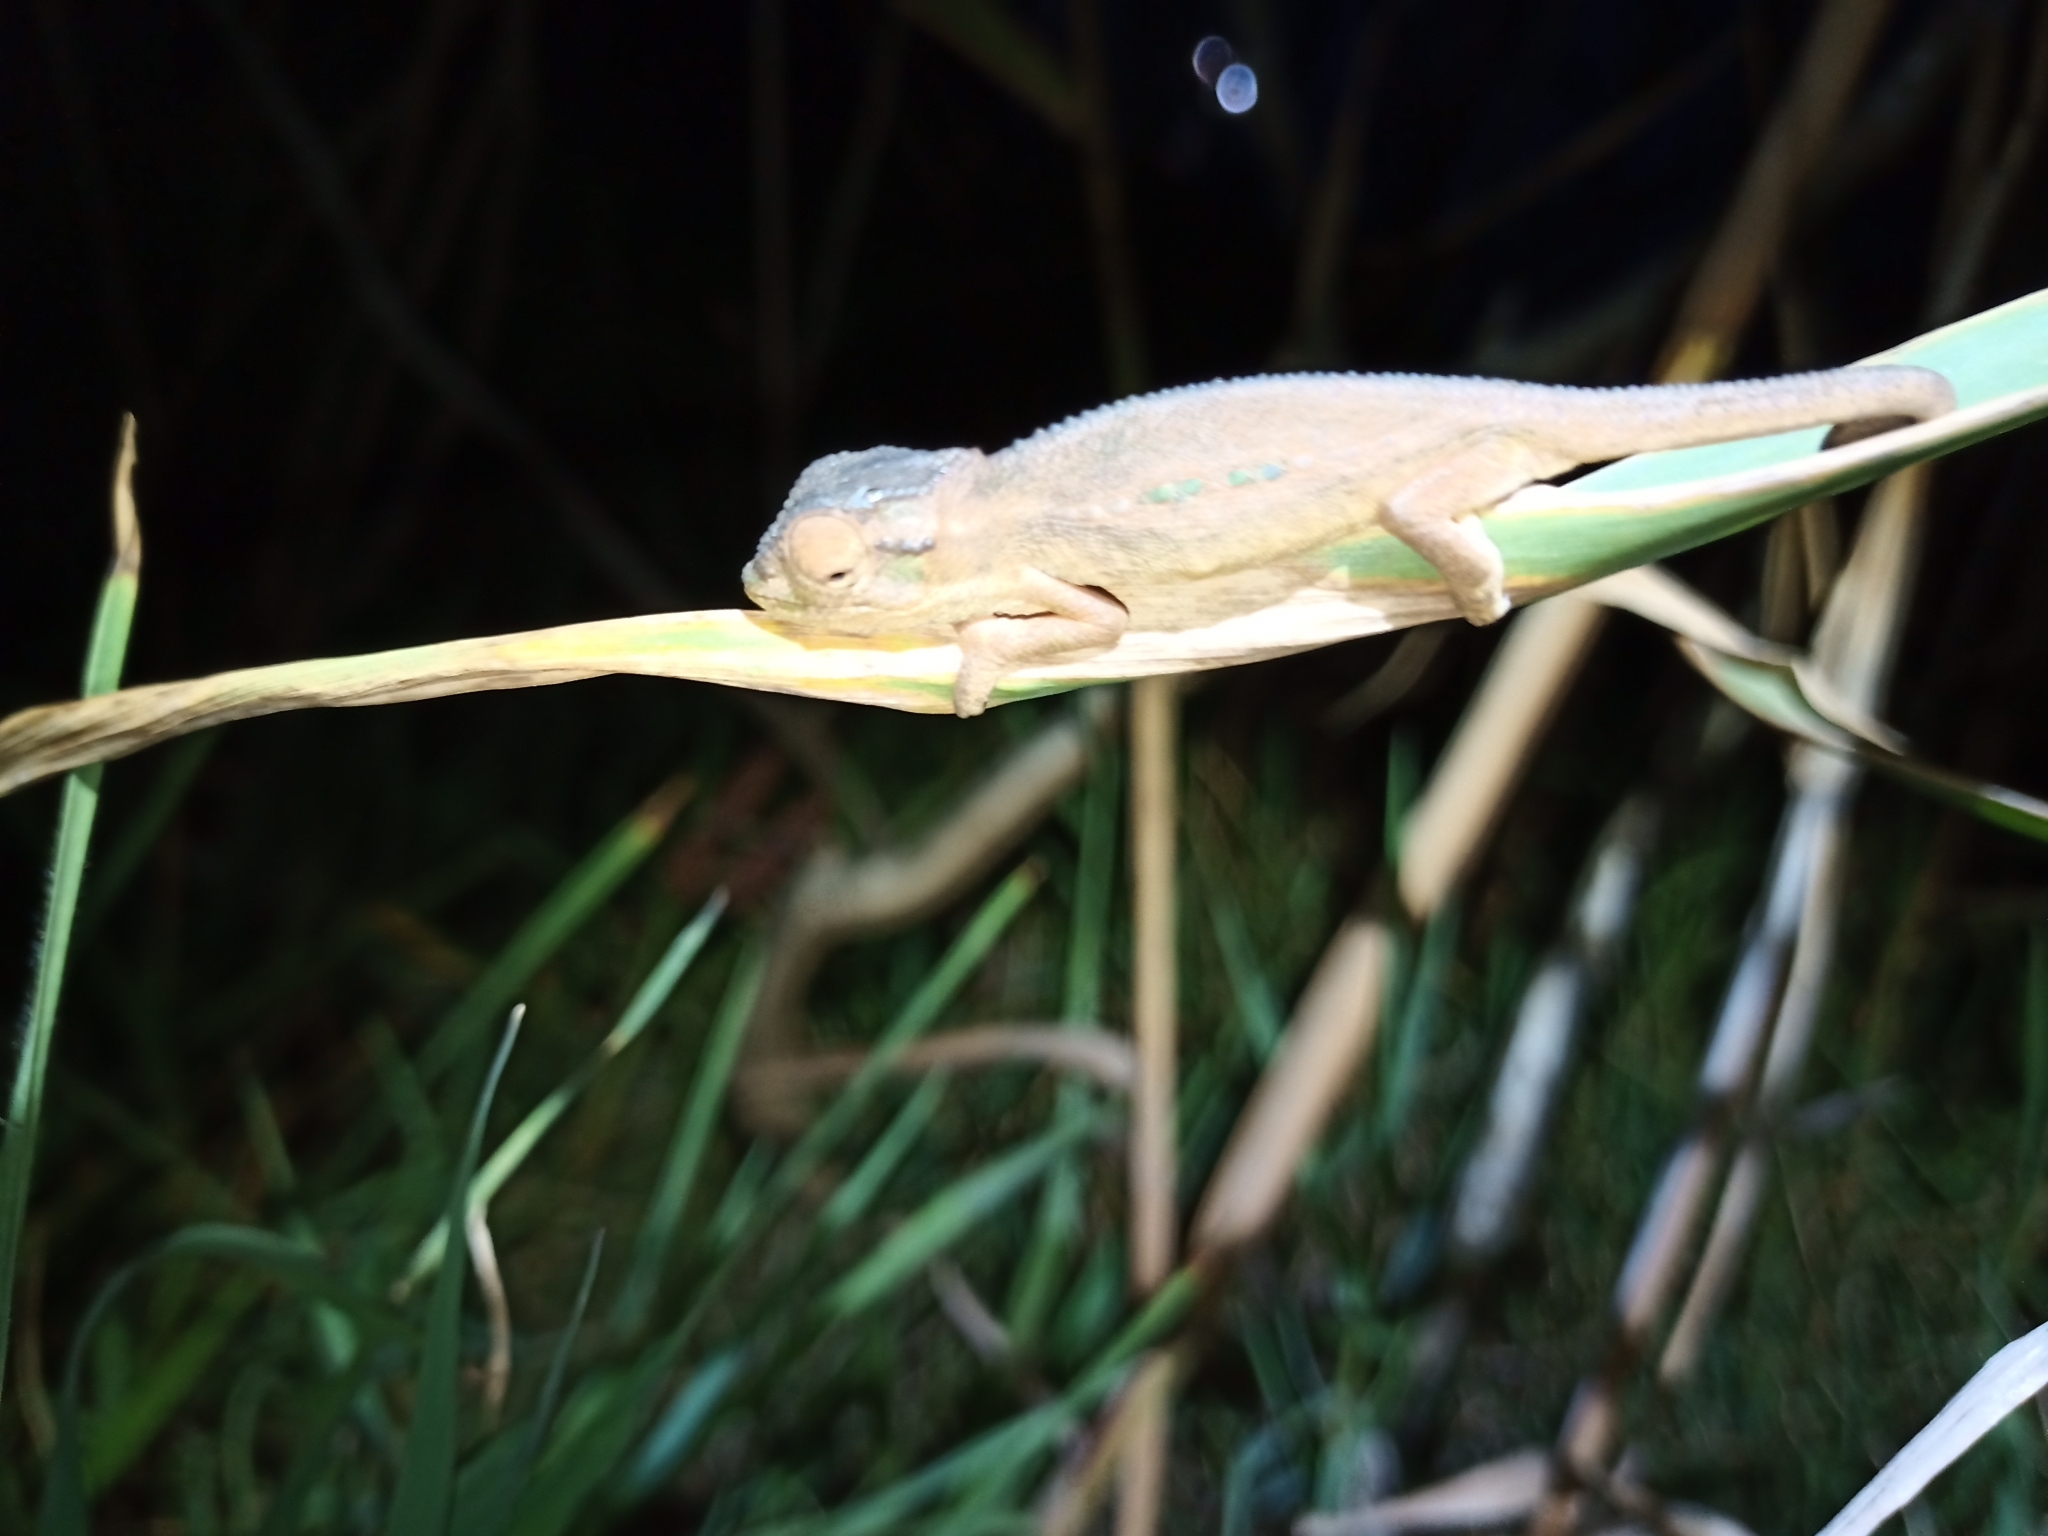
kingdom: Animalia
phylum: Chordata
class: Squamata
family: Chamaeleonidae
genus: Bradypodion
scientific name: Bradypodion pumilum
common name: Cape dwarf chameleon
